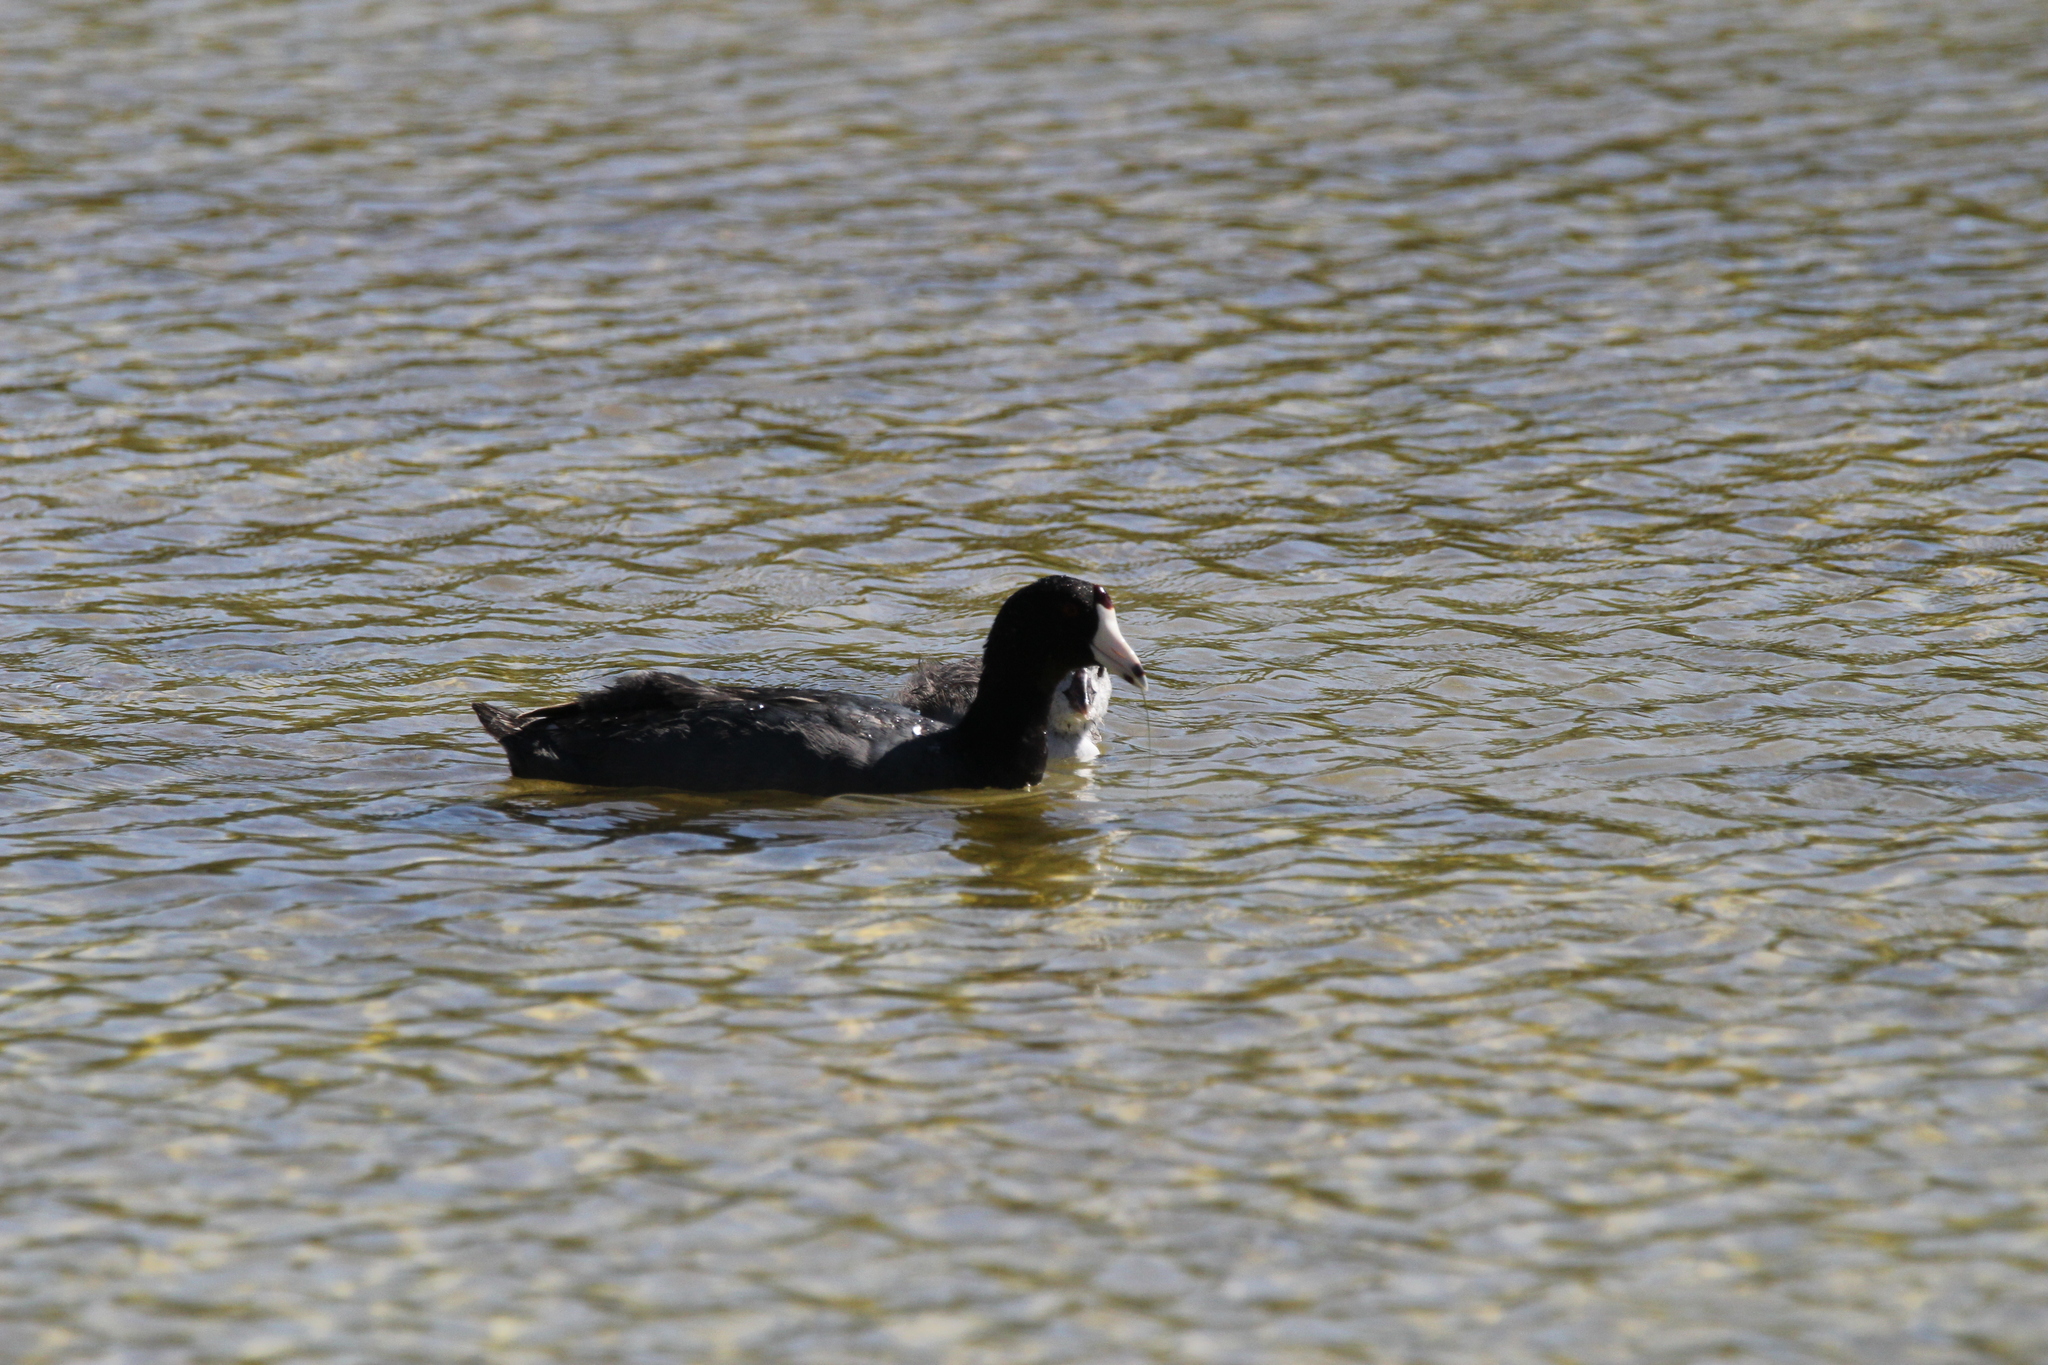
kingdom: Animalia
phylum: Chordata
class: Aves
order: Gruiformes
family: Rallidae
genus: Fulica
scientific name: Fulica americana
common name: American coot
